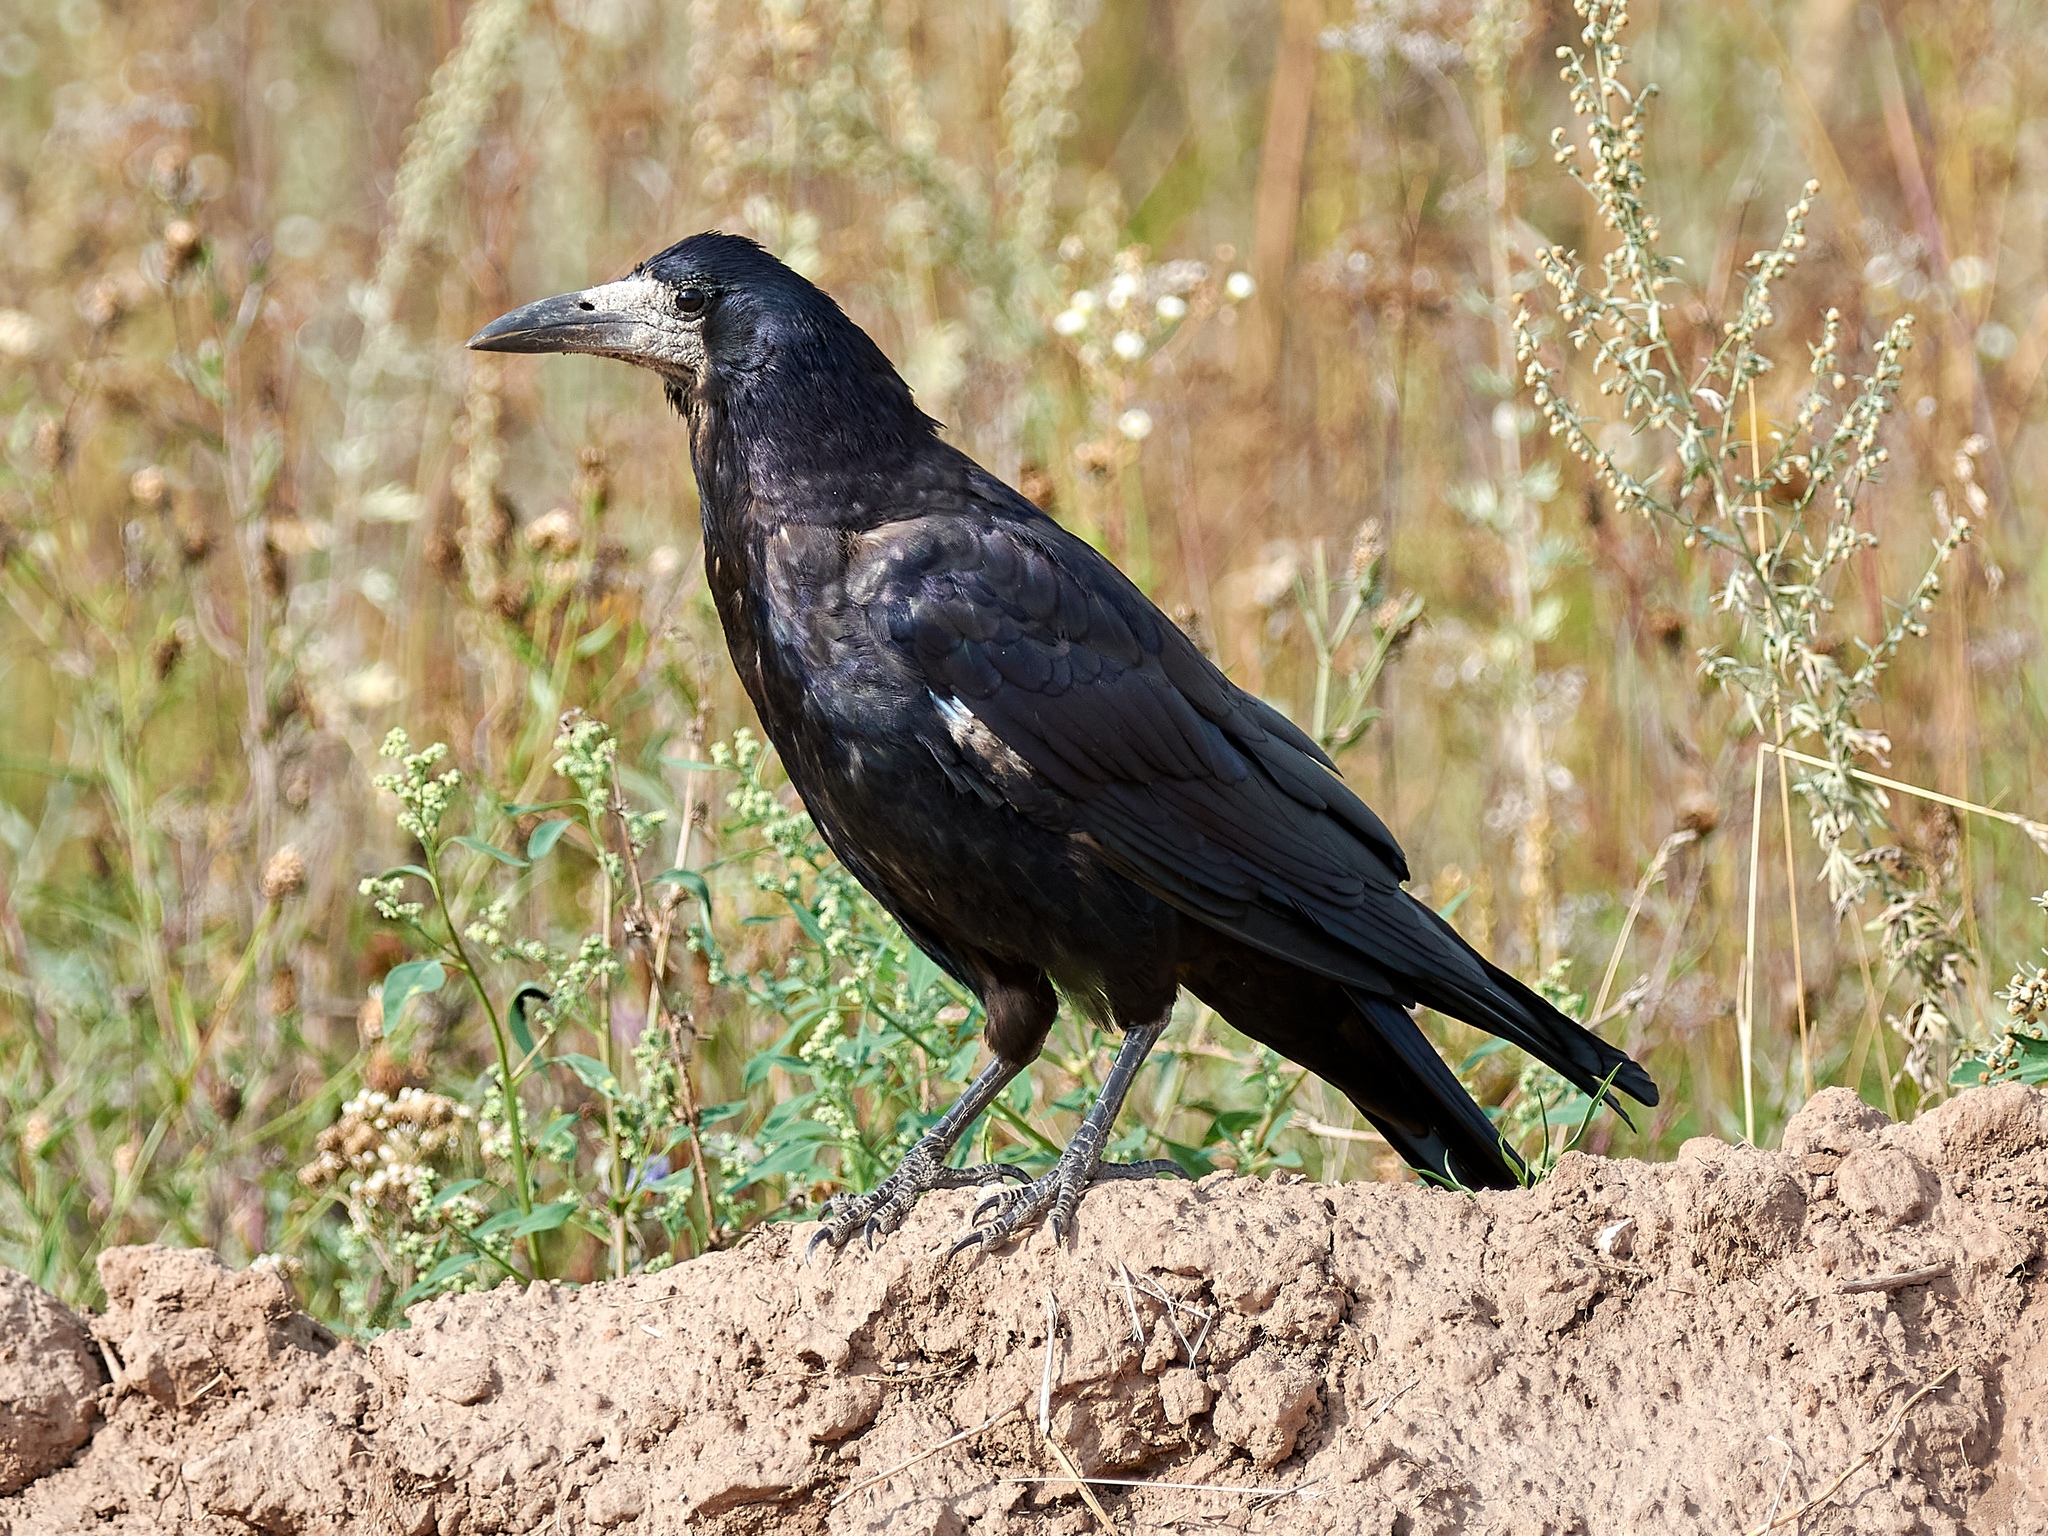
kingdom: Animalia
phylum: Chordata
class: Aves
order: Passeriformes
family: Corvidae
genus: Corvus
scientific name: Corvus frugilegus
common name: Rook
